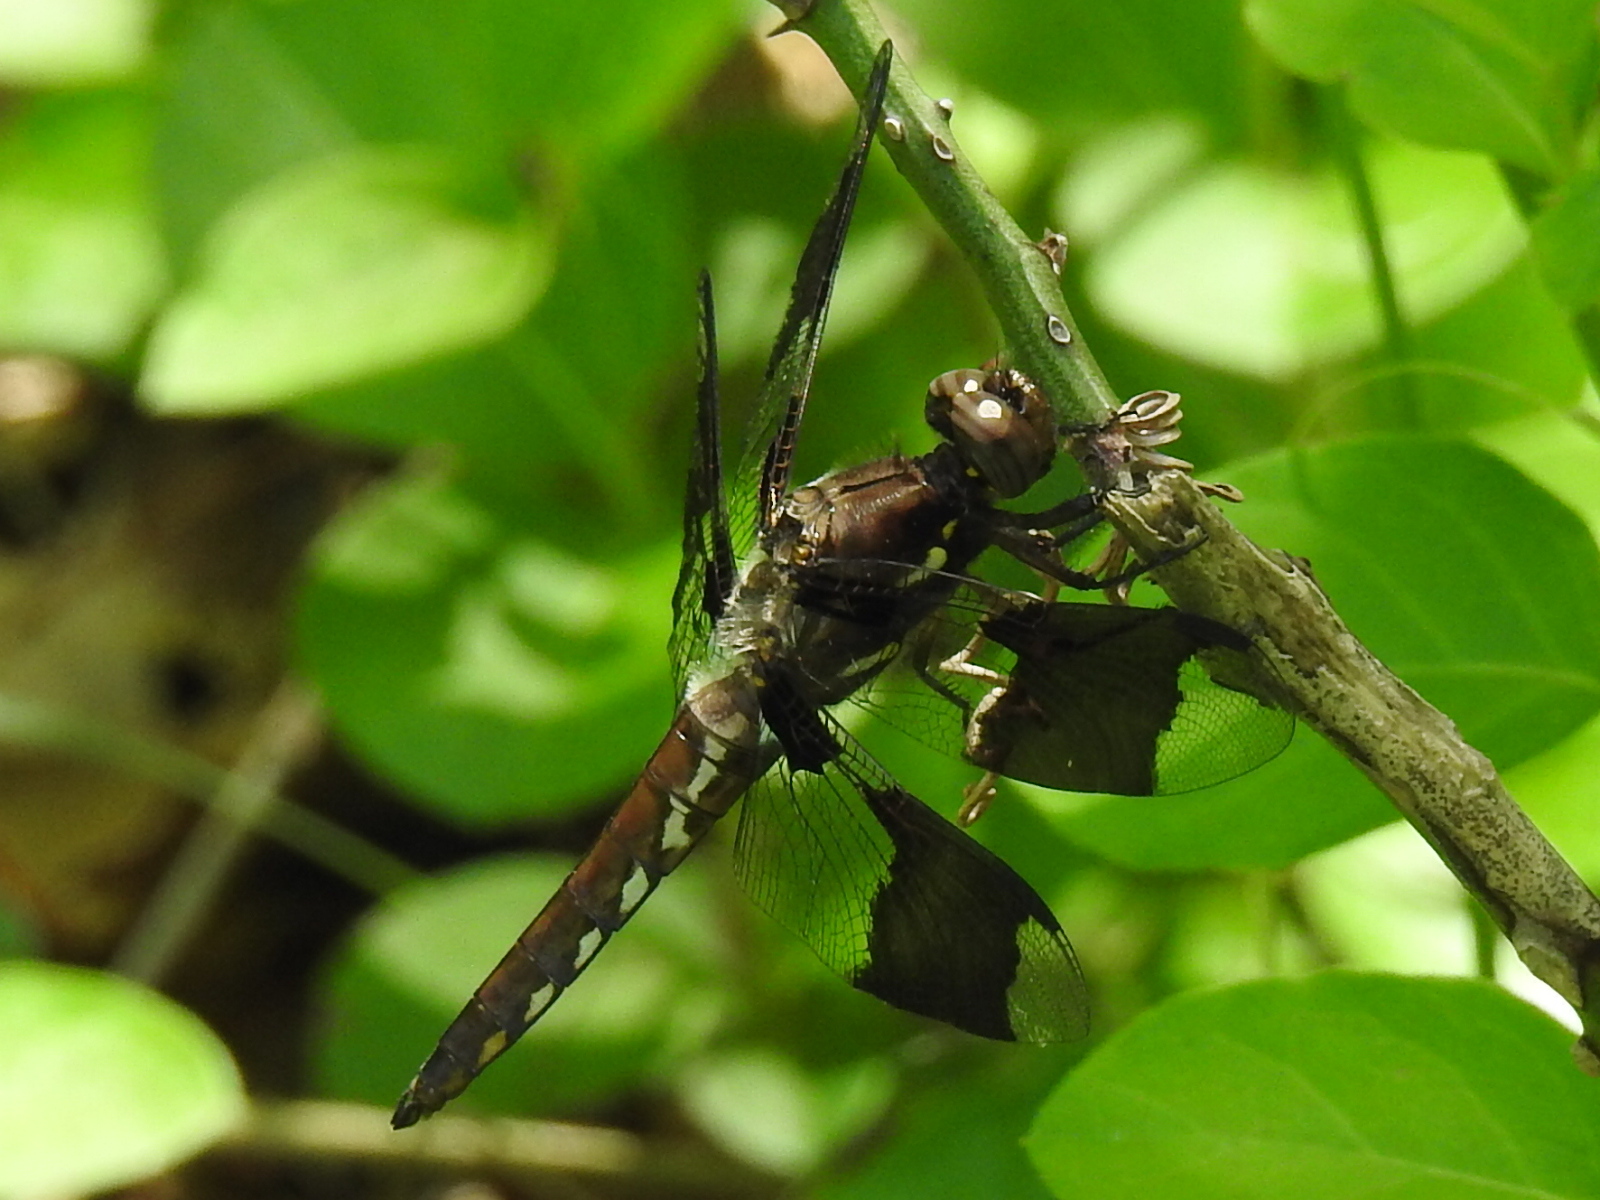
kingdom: Animalia
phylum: Arthropoda
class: Insecta
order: Odonata
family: Libellulidae
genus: Plathemis
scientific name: Plathemis lydia
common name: Common whitetail
